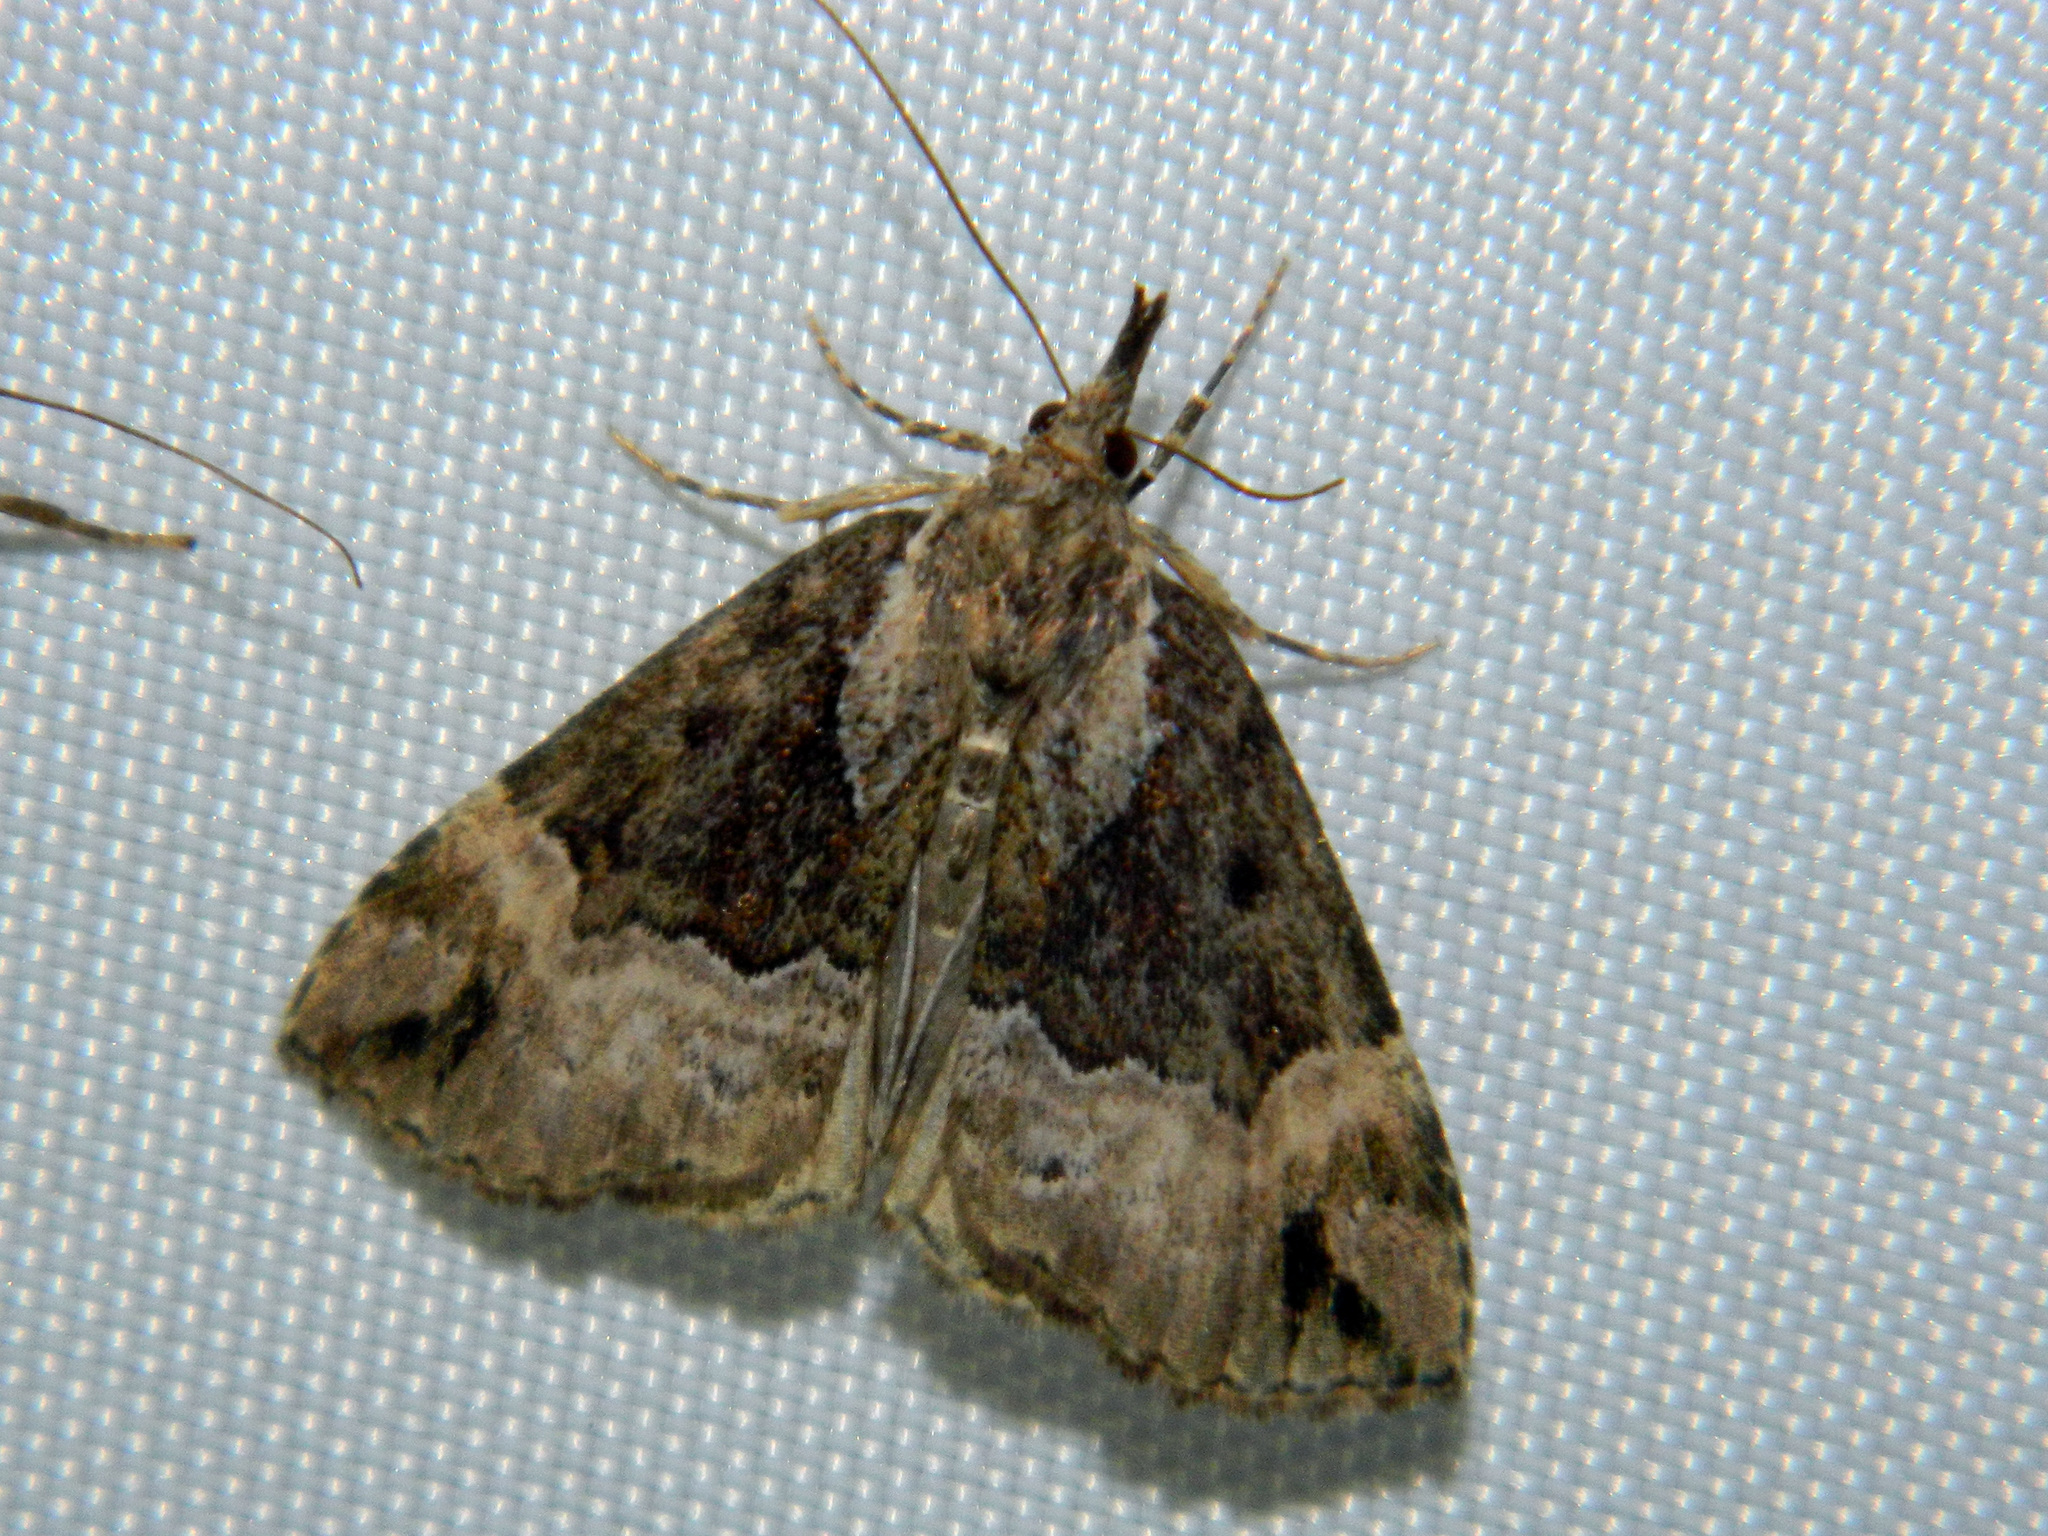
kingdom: Animalia
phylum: Arthropoda
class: Insecta
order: Lepidoptera
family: Erebidae
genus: Hypena
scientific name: Hypena palparia
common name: Mottled bomolocha moth
